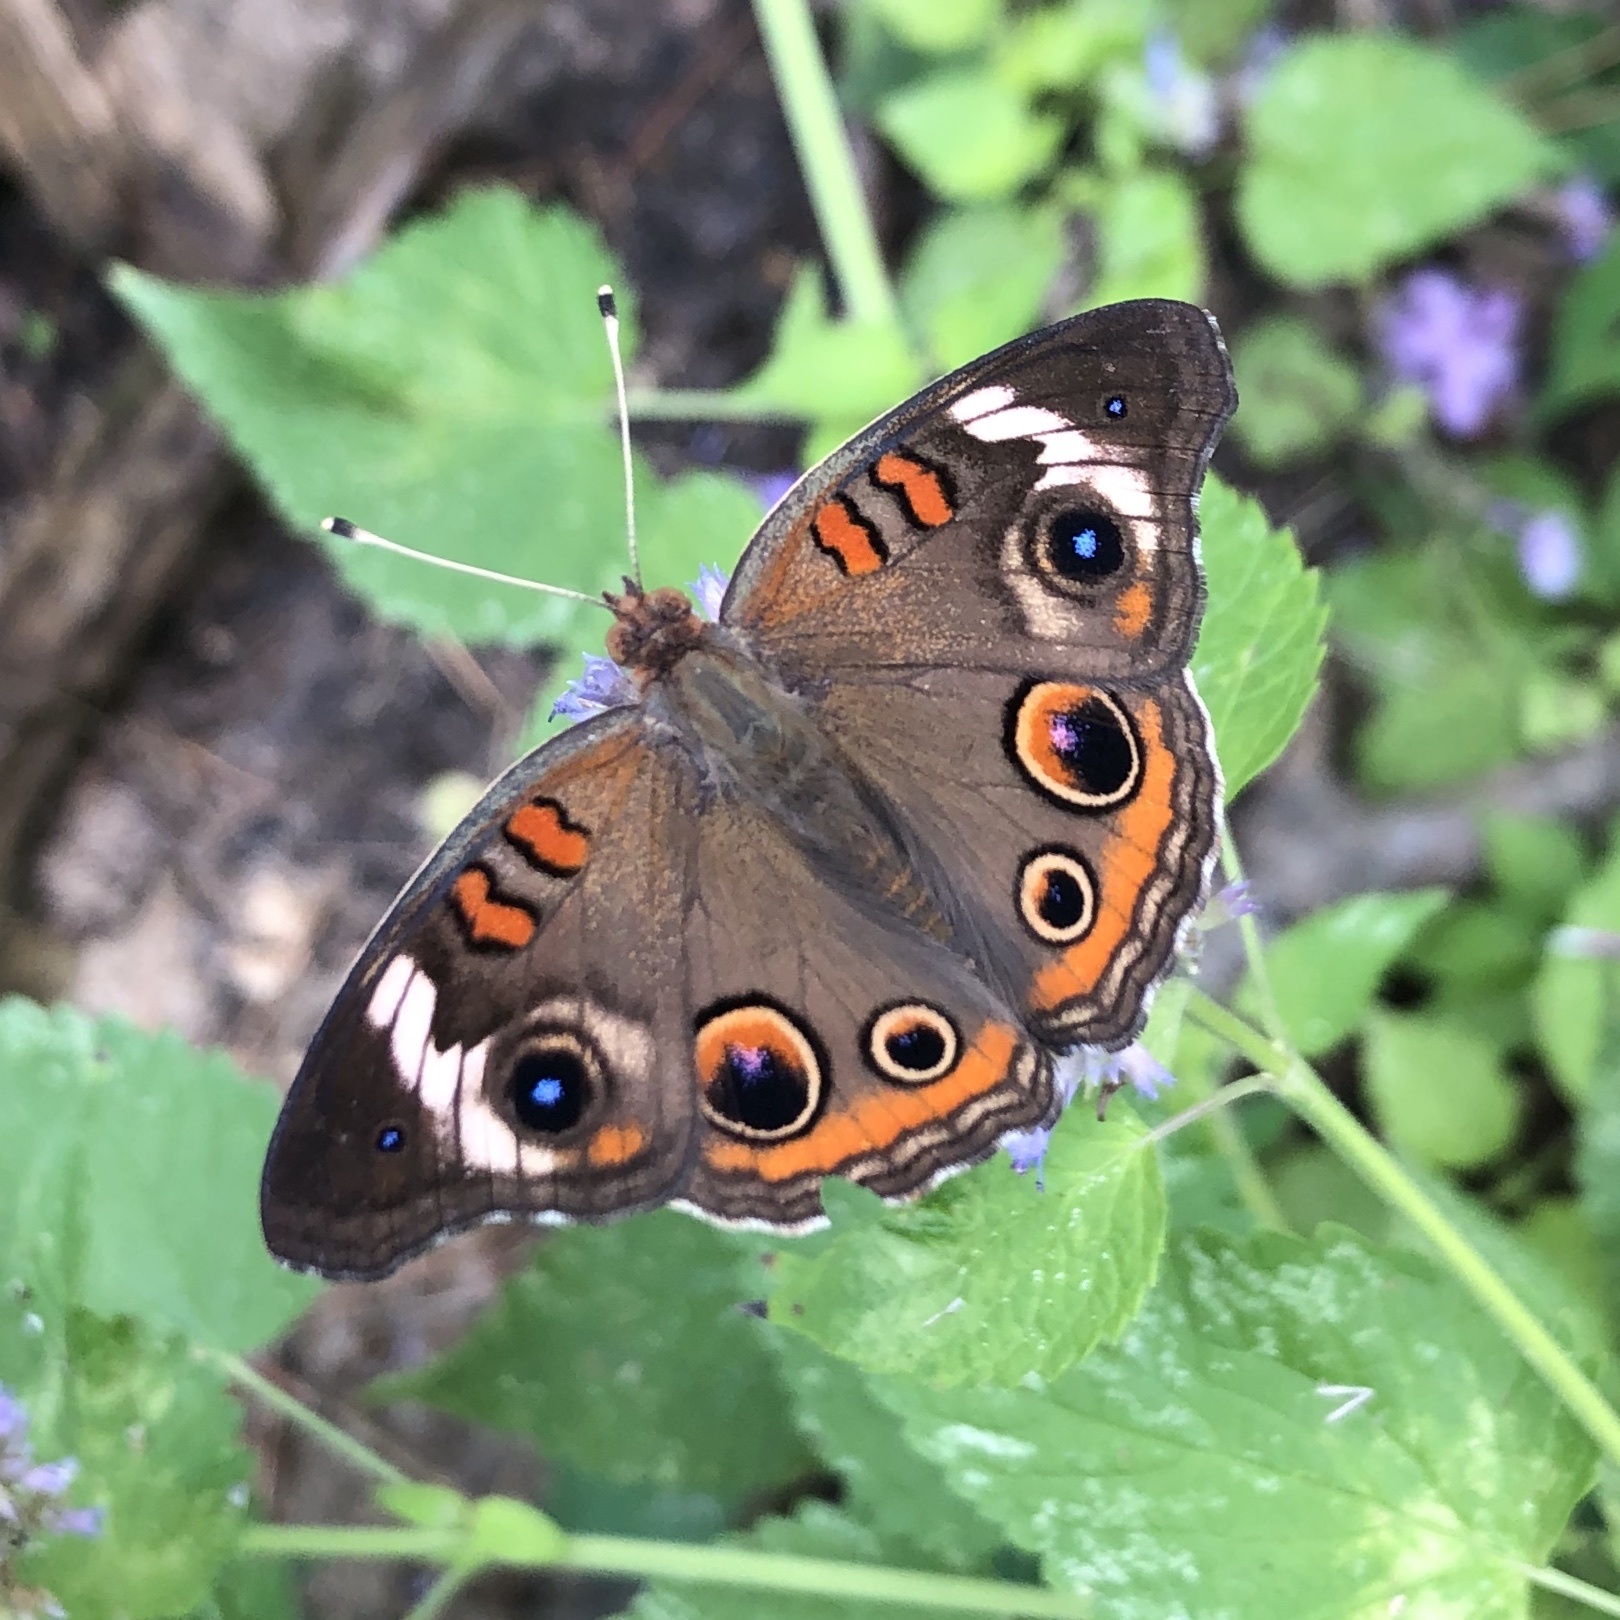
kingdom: Animalia
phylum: Arthropoda
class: Insecta
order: Lepidoptera
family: Nymphalidae
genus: Junonia
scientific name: Junonia coenia
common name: Common buckeye
